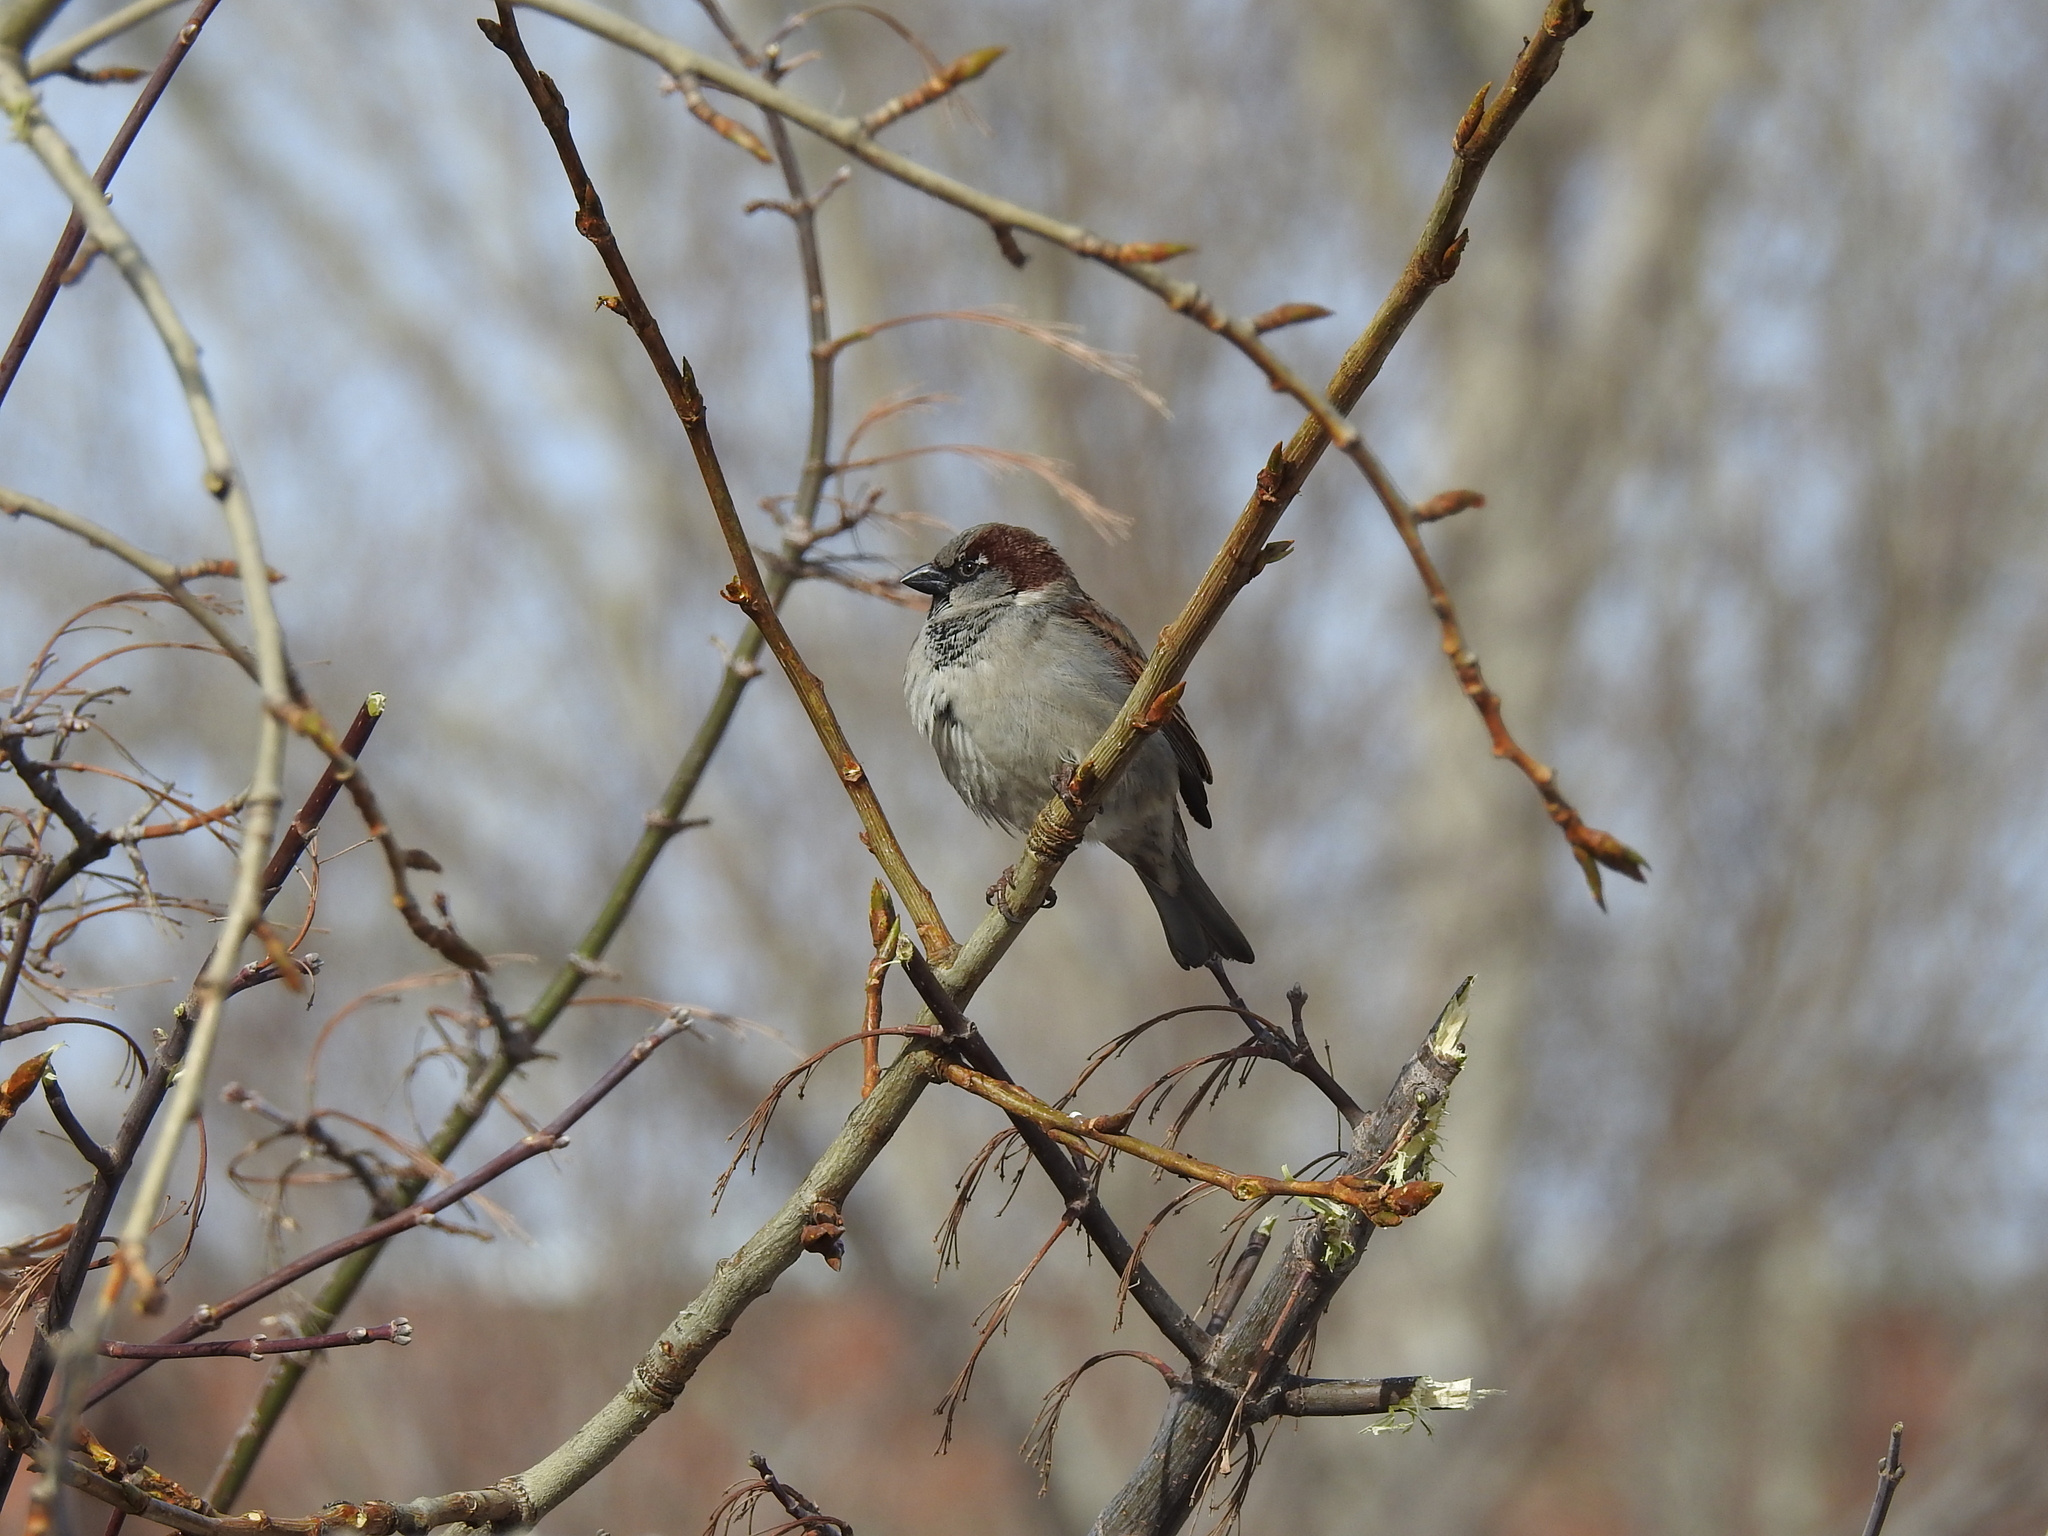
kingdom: Animalia
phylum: Chordata
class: Aves
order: Passeriformes
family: Passeridae
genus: Passer
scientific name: Passer domesticus
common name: House sparrow
